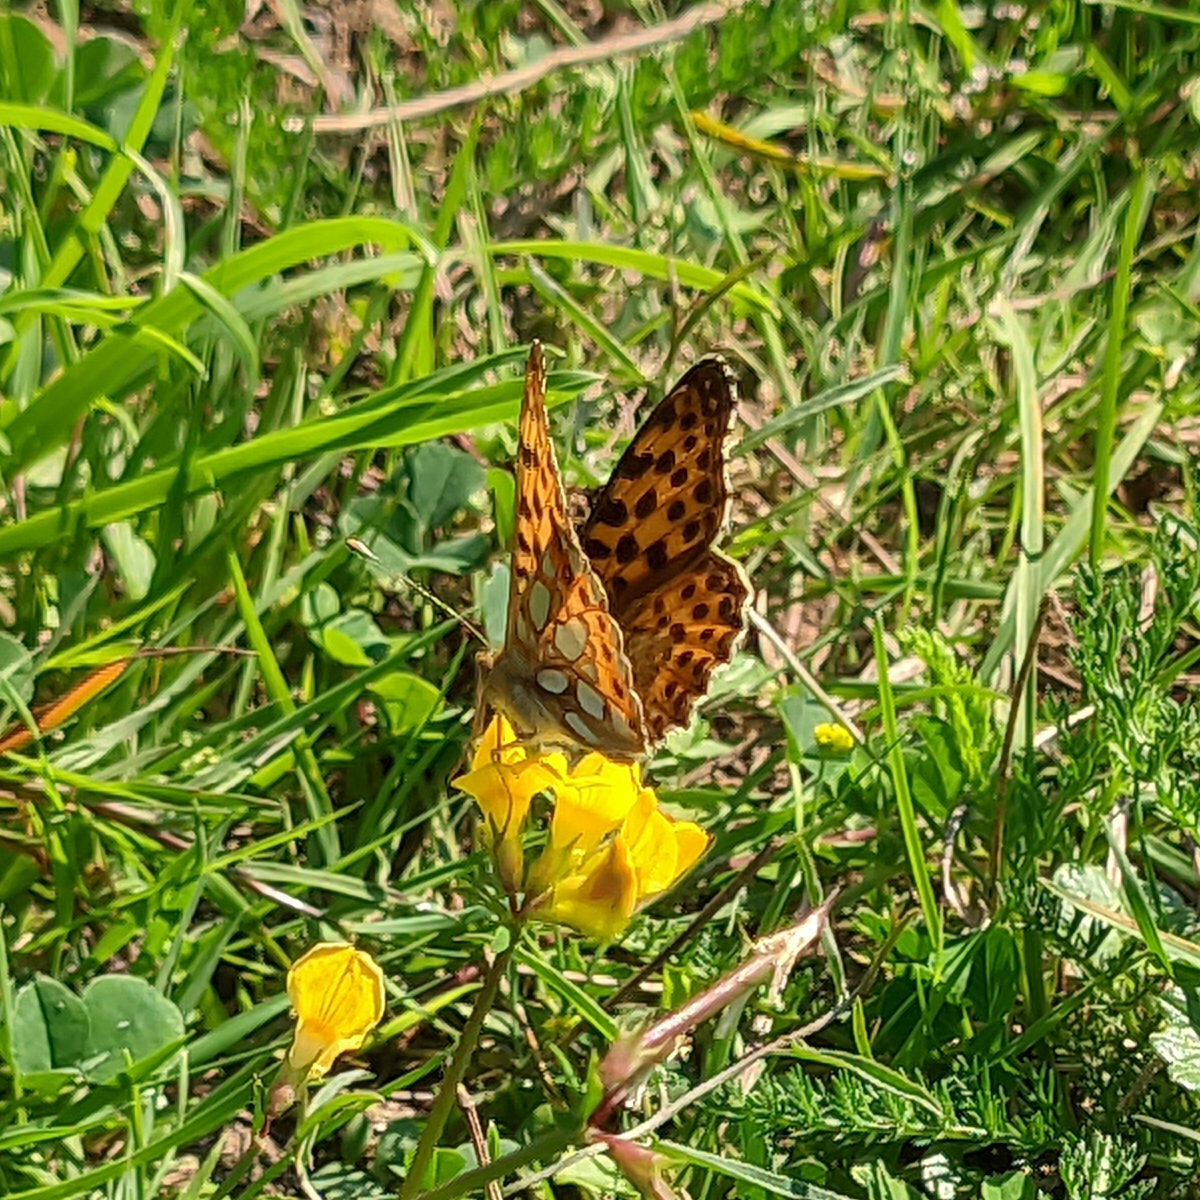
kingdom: Animalia
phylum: Arthropoda
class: Insecta
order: Lepidoptera
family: Nymphalidae
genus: Issoria
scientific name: Issoria lathonia
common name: Queen of spain fritillary
